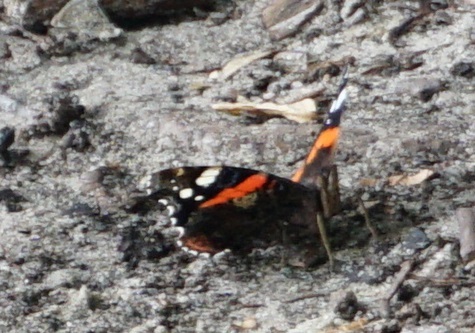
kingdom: Animalia
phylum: Arthropoda
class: Insecta
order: Lepidoptera
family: Nymphalidae
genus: Vanessa
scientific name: Vanessa atalanta
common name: Red admiral
